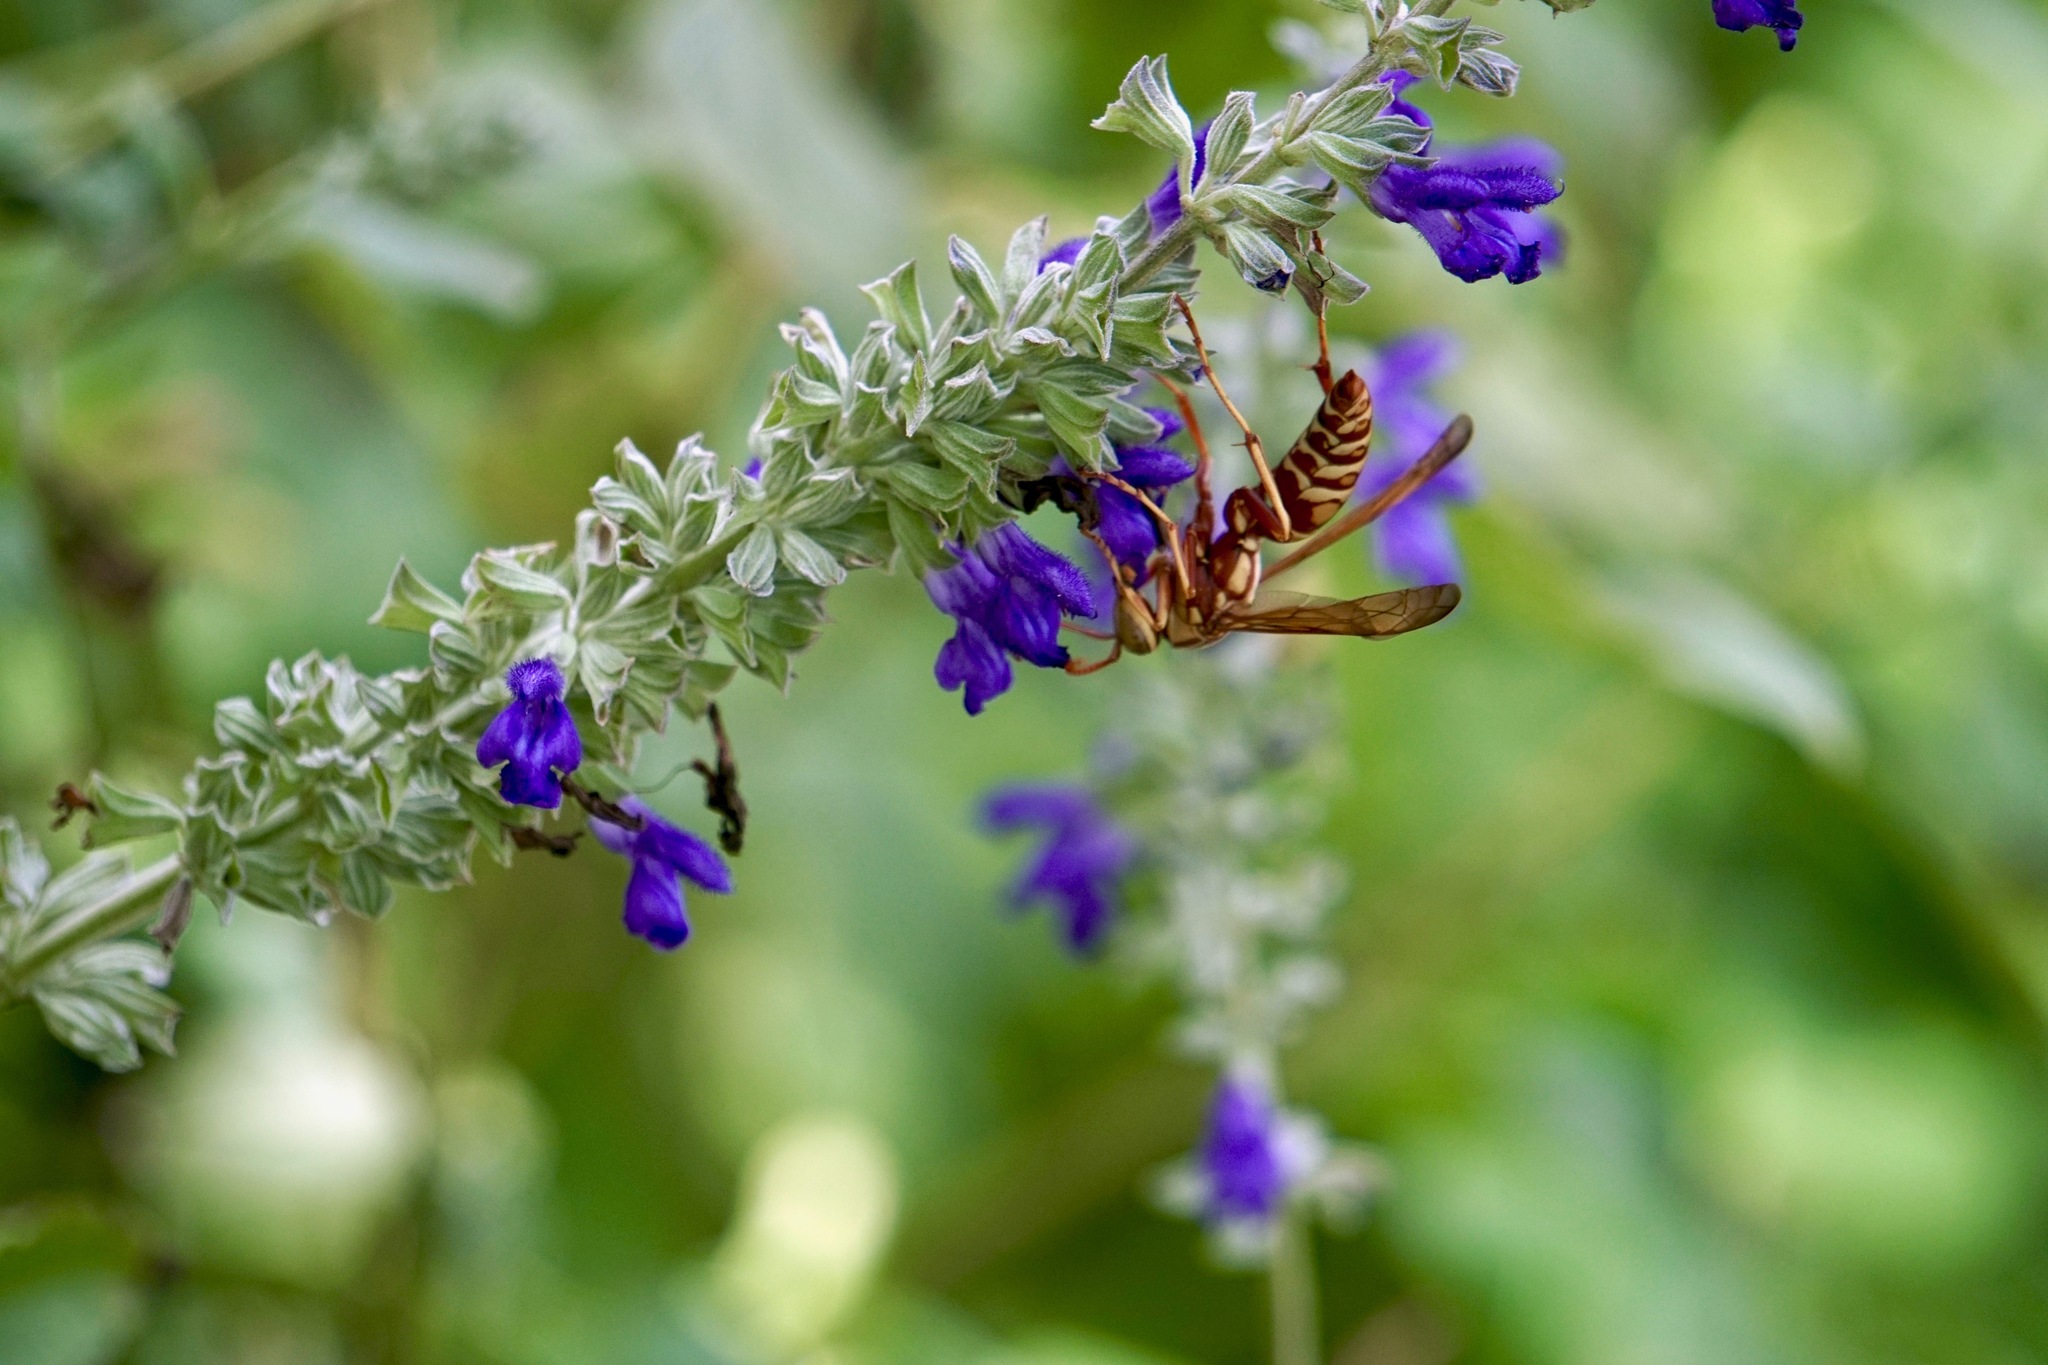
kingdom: Animalia
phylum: Arthropoda
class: Insecta
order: Hymenoptera
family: Eumenidae
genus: Polistes
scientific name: Polistes apachus
